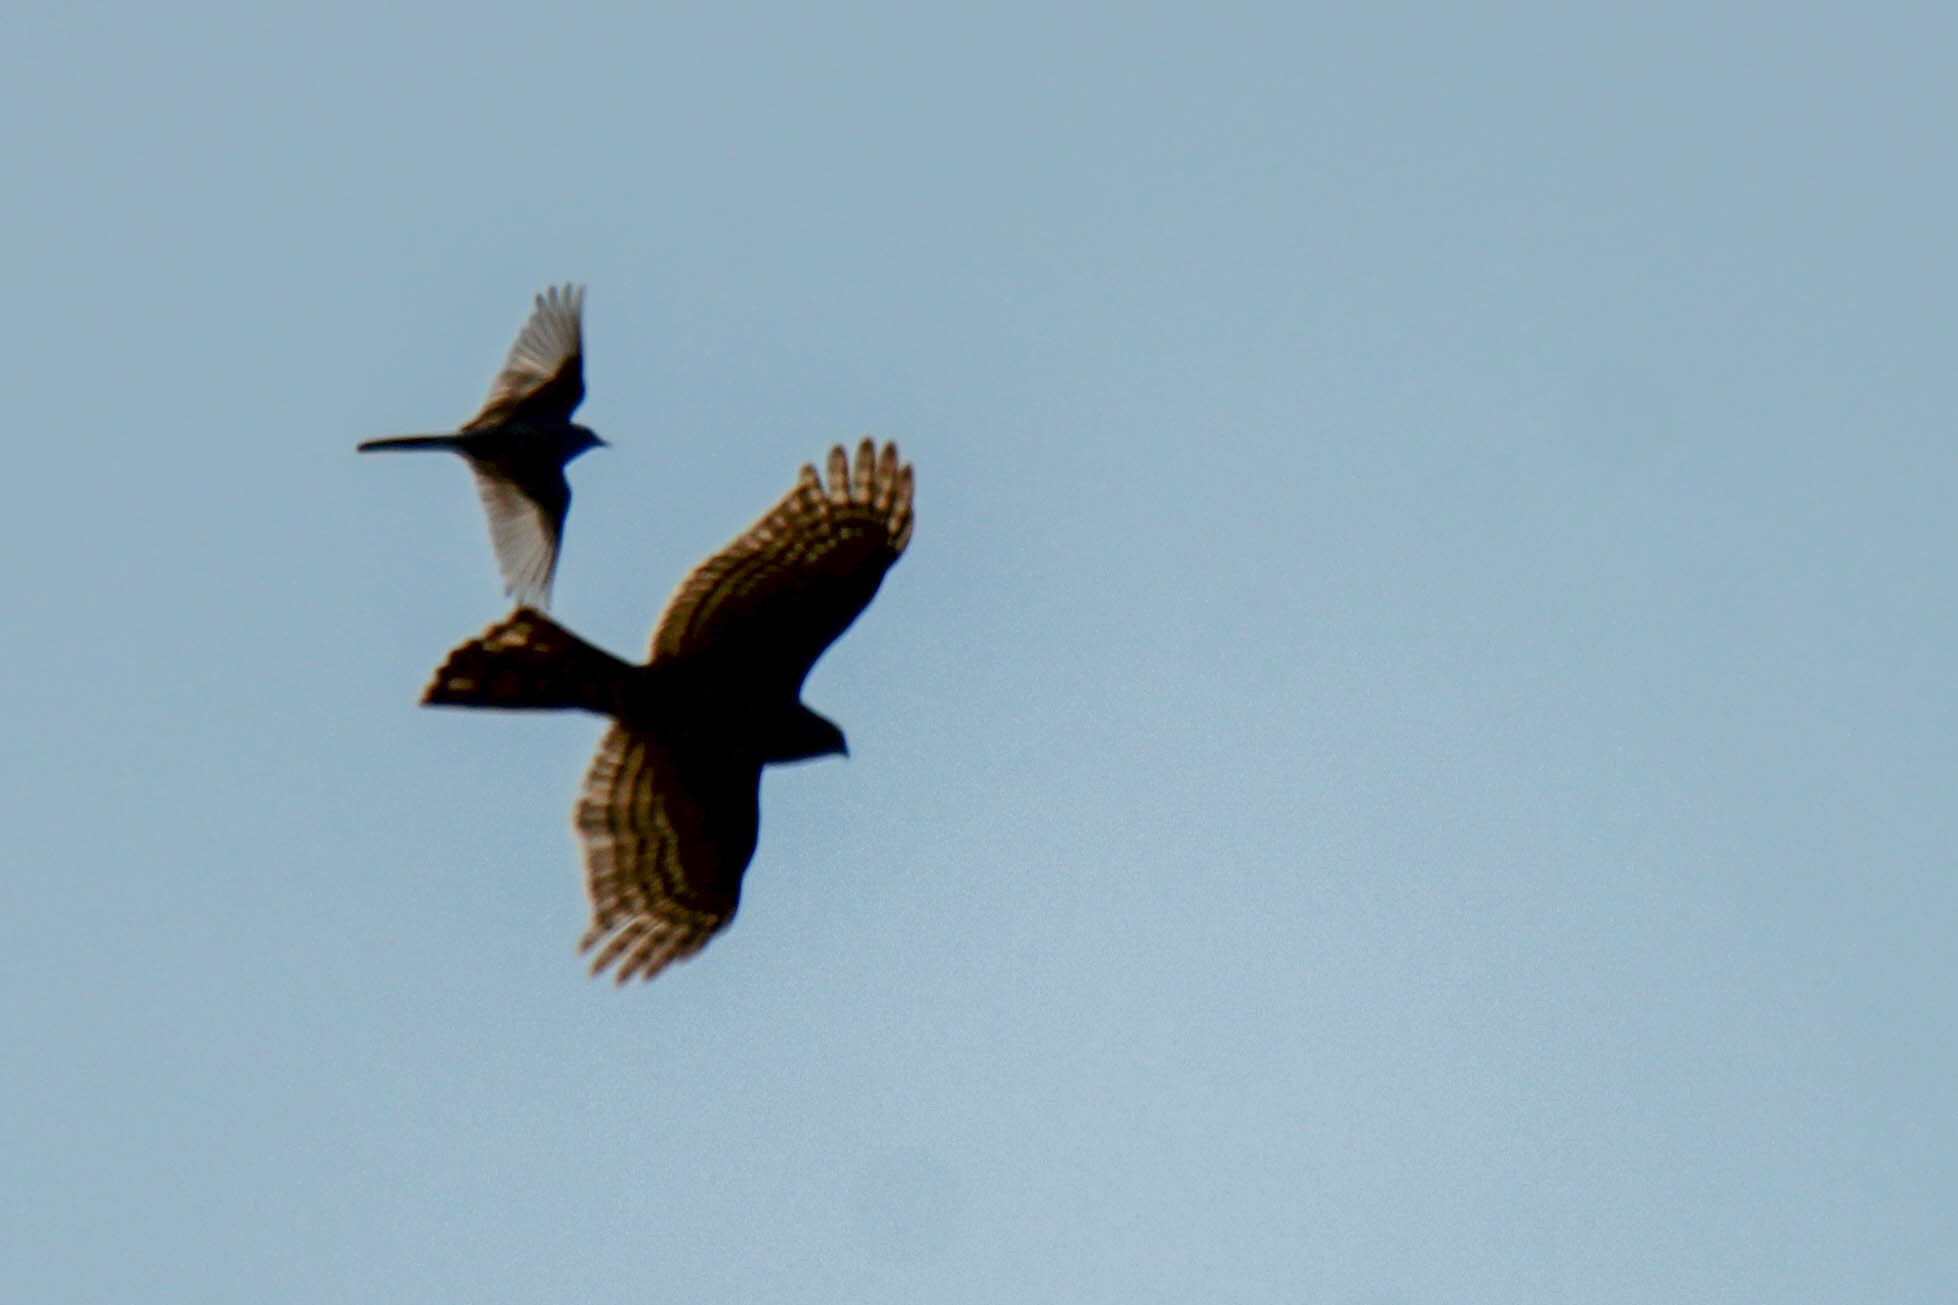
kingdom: Animalia
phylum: Chordata
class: Aves
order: Accipitriformes
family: Accipitridae
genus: Accipiter
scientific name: Accipiter nisus
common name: Eurasian sparrowhawk
